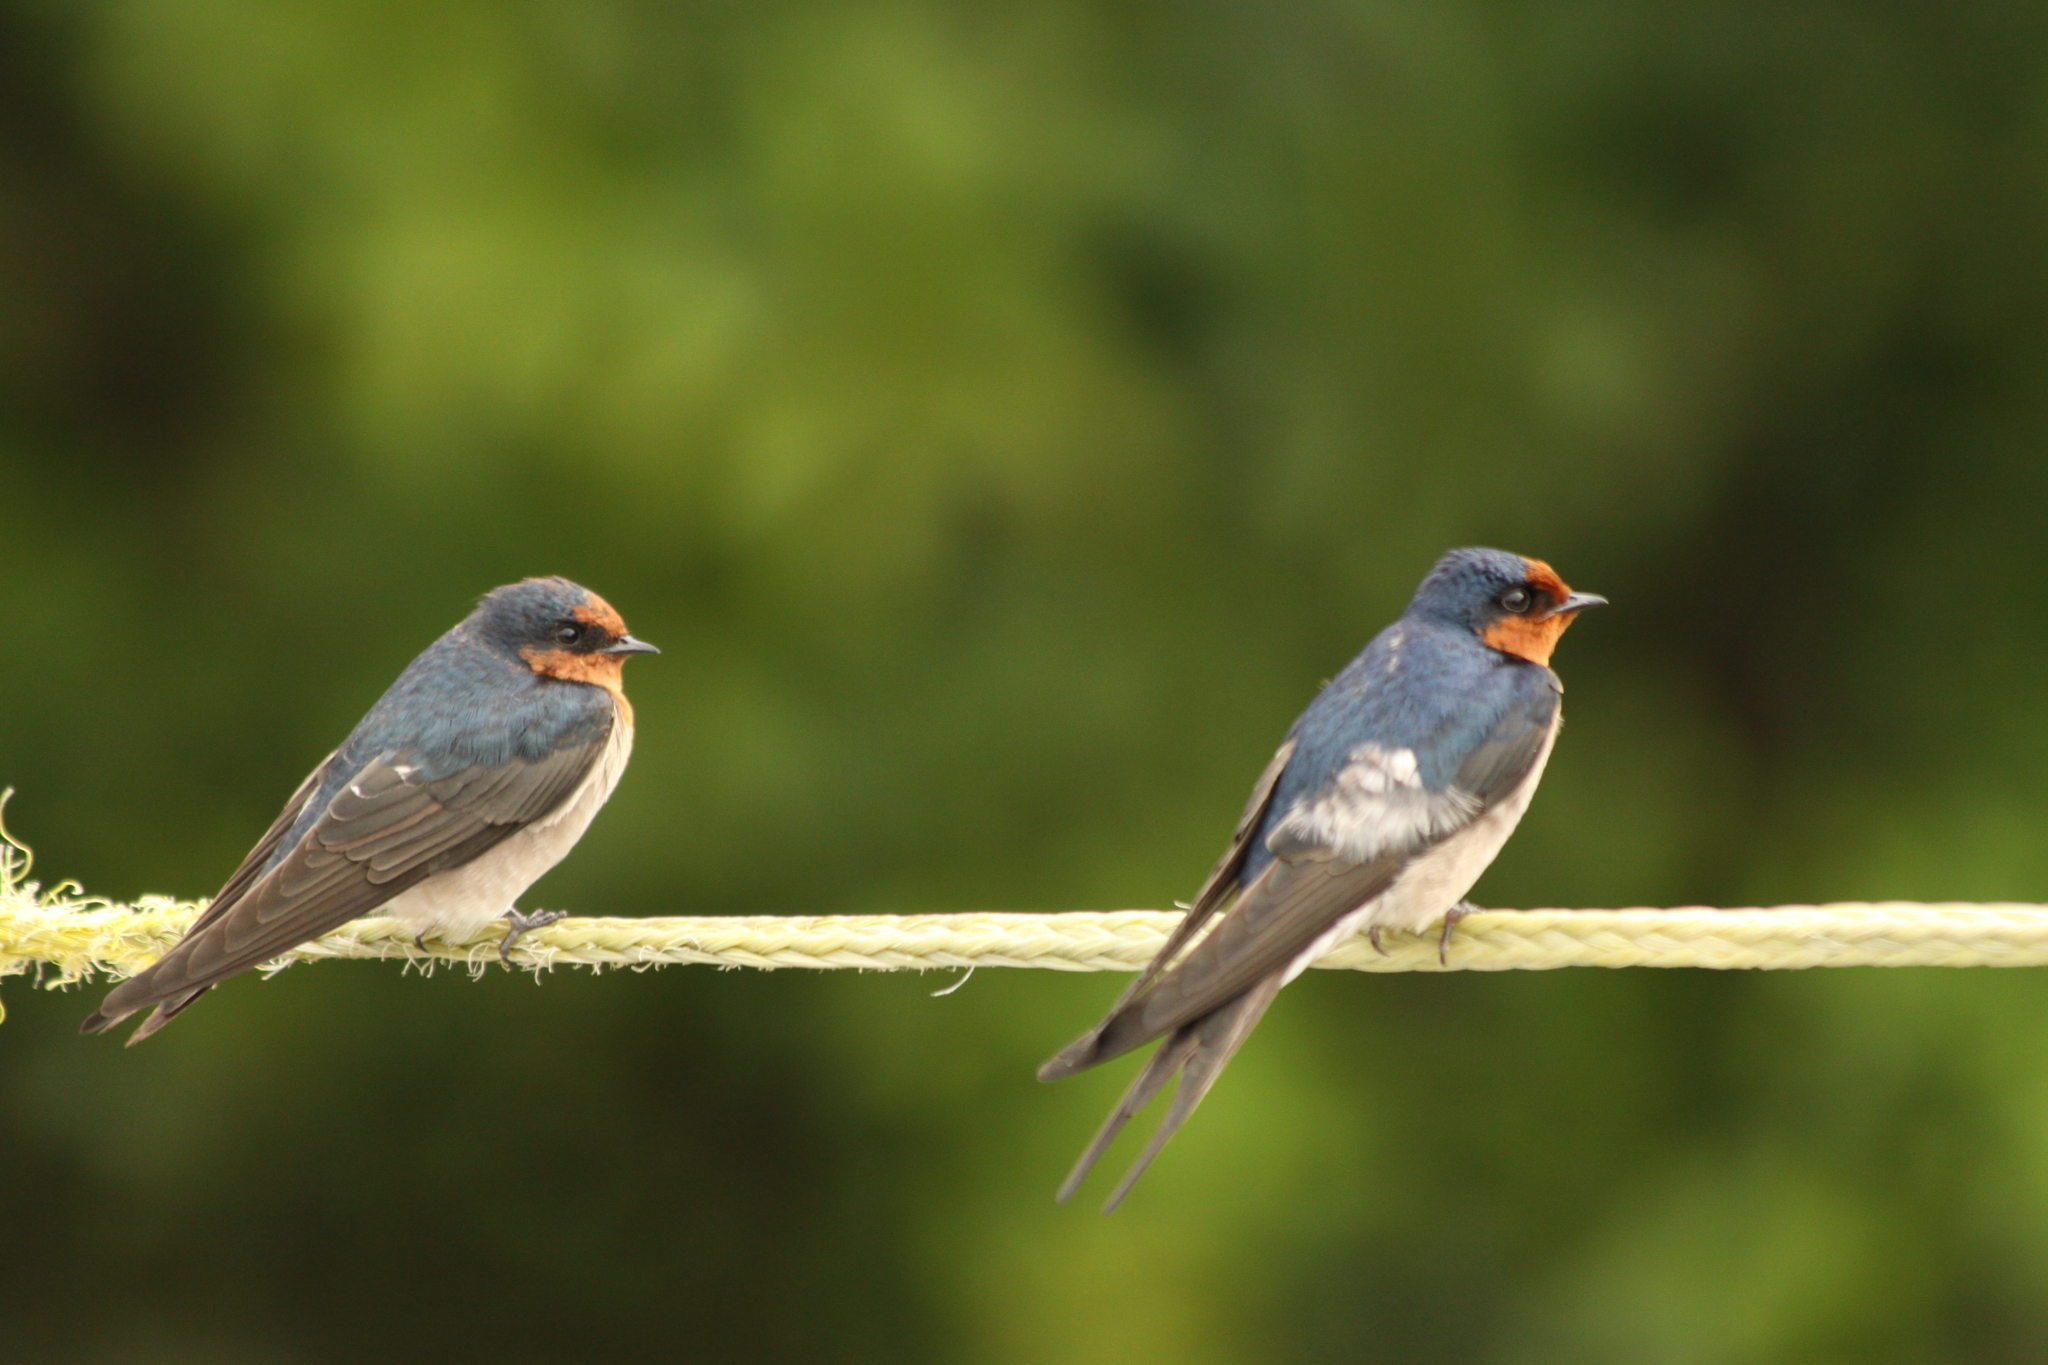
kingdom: Animalia
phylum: Chordata
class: Aves
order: Passeriformes
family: Hirundinidae
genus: Hirundo
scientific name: Hirundo neoxena
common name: Welcome swallow
